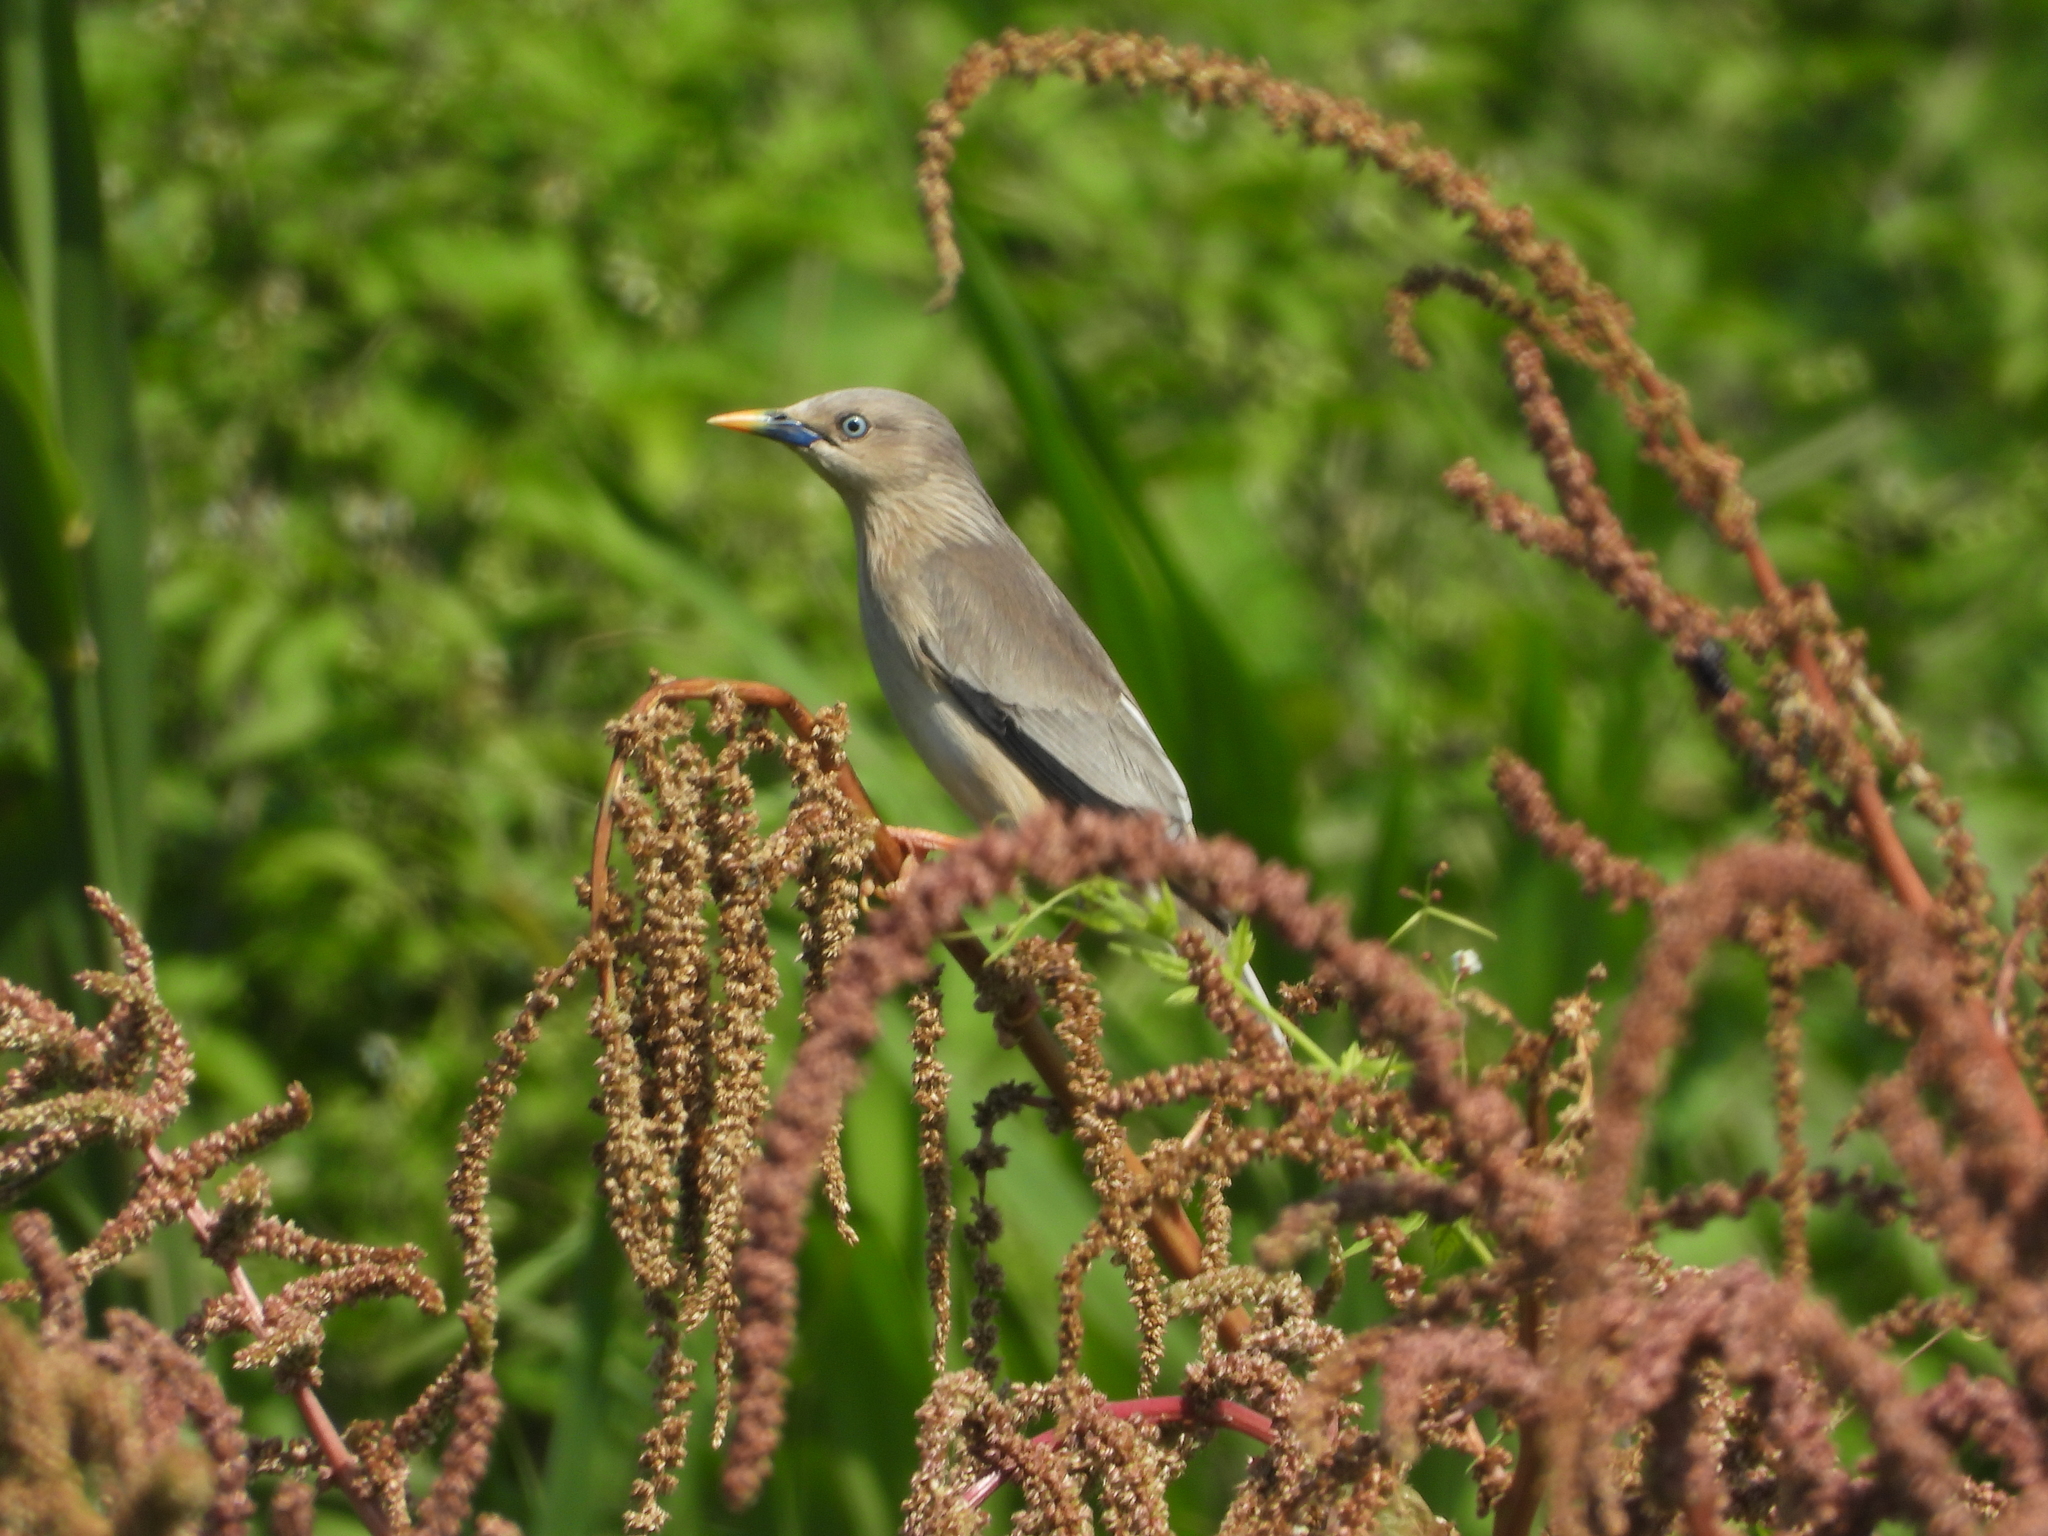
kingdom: Animalia
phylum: Chordata
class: Aves
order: Passeriformes
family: Sturnidae
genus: Sturnia
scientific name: Sturnia malabarica
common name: Chestnut-tailed starling
